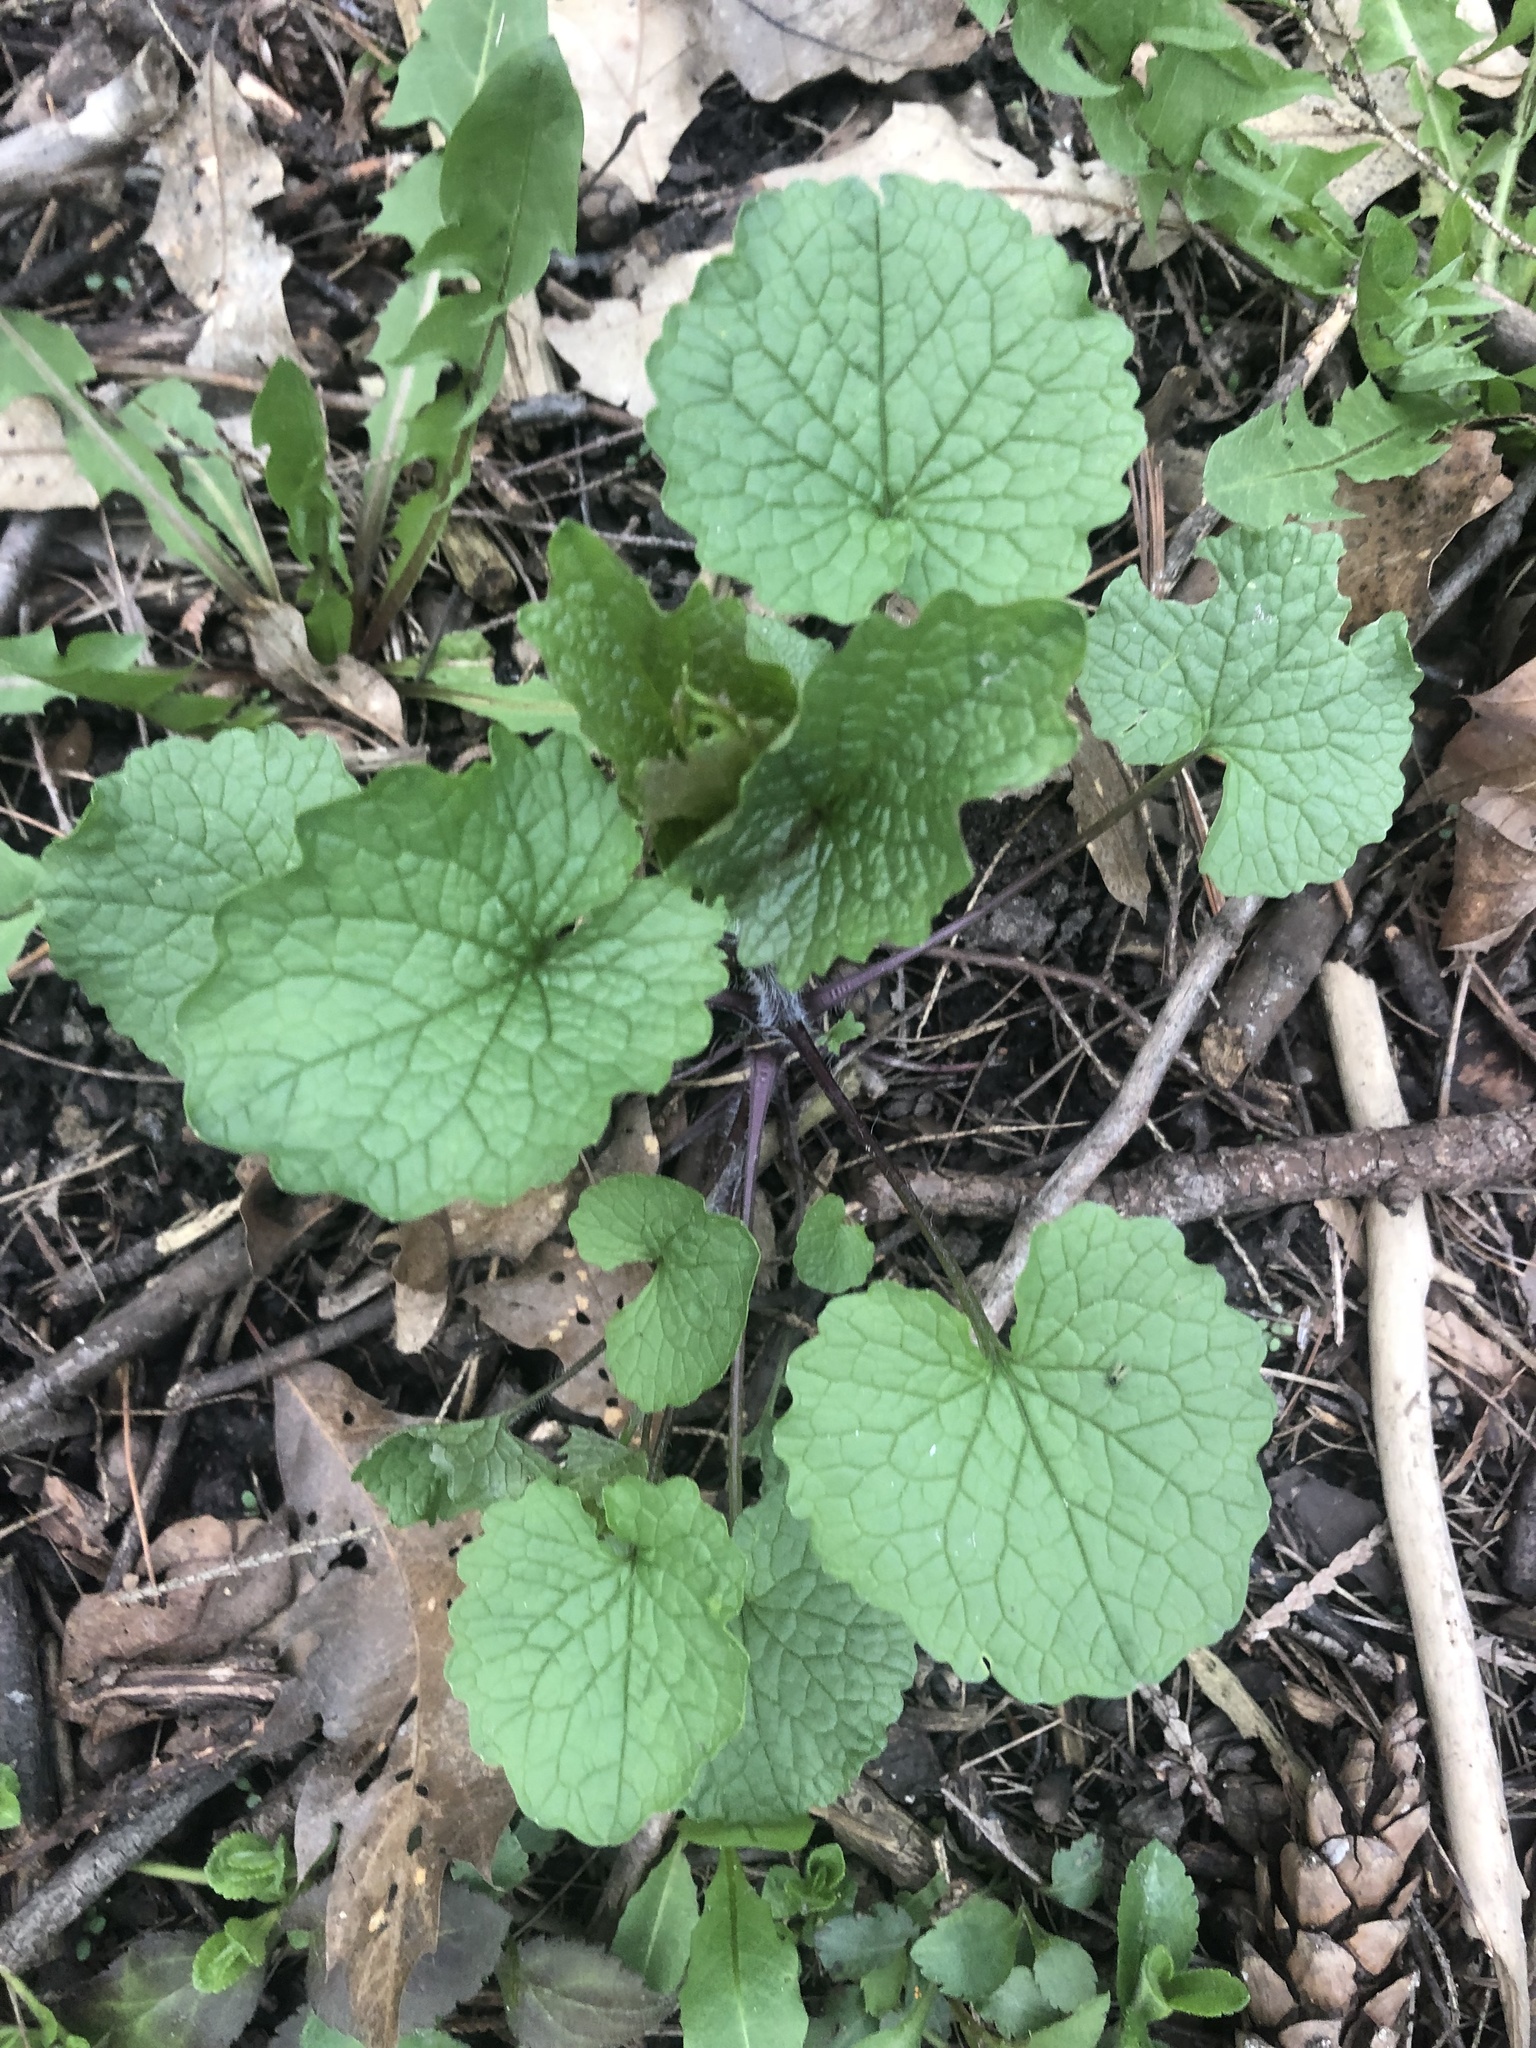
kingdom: Plantae
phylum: Tracheophyta
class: Magnoliopsida
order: Brassicales
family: Brassicaceae
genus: Alliaria
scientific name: Alliaria petiolata
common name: Garlic mustard
